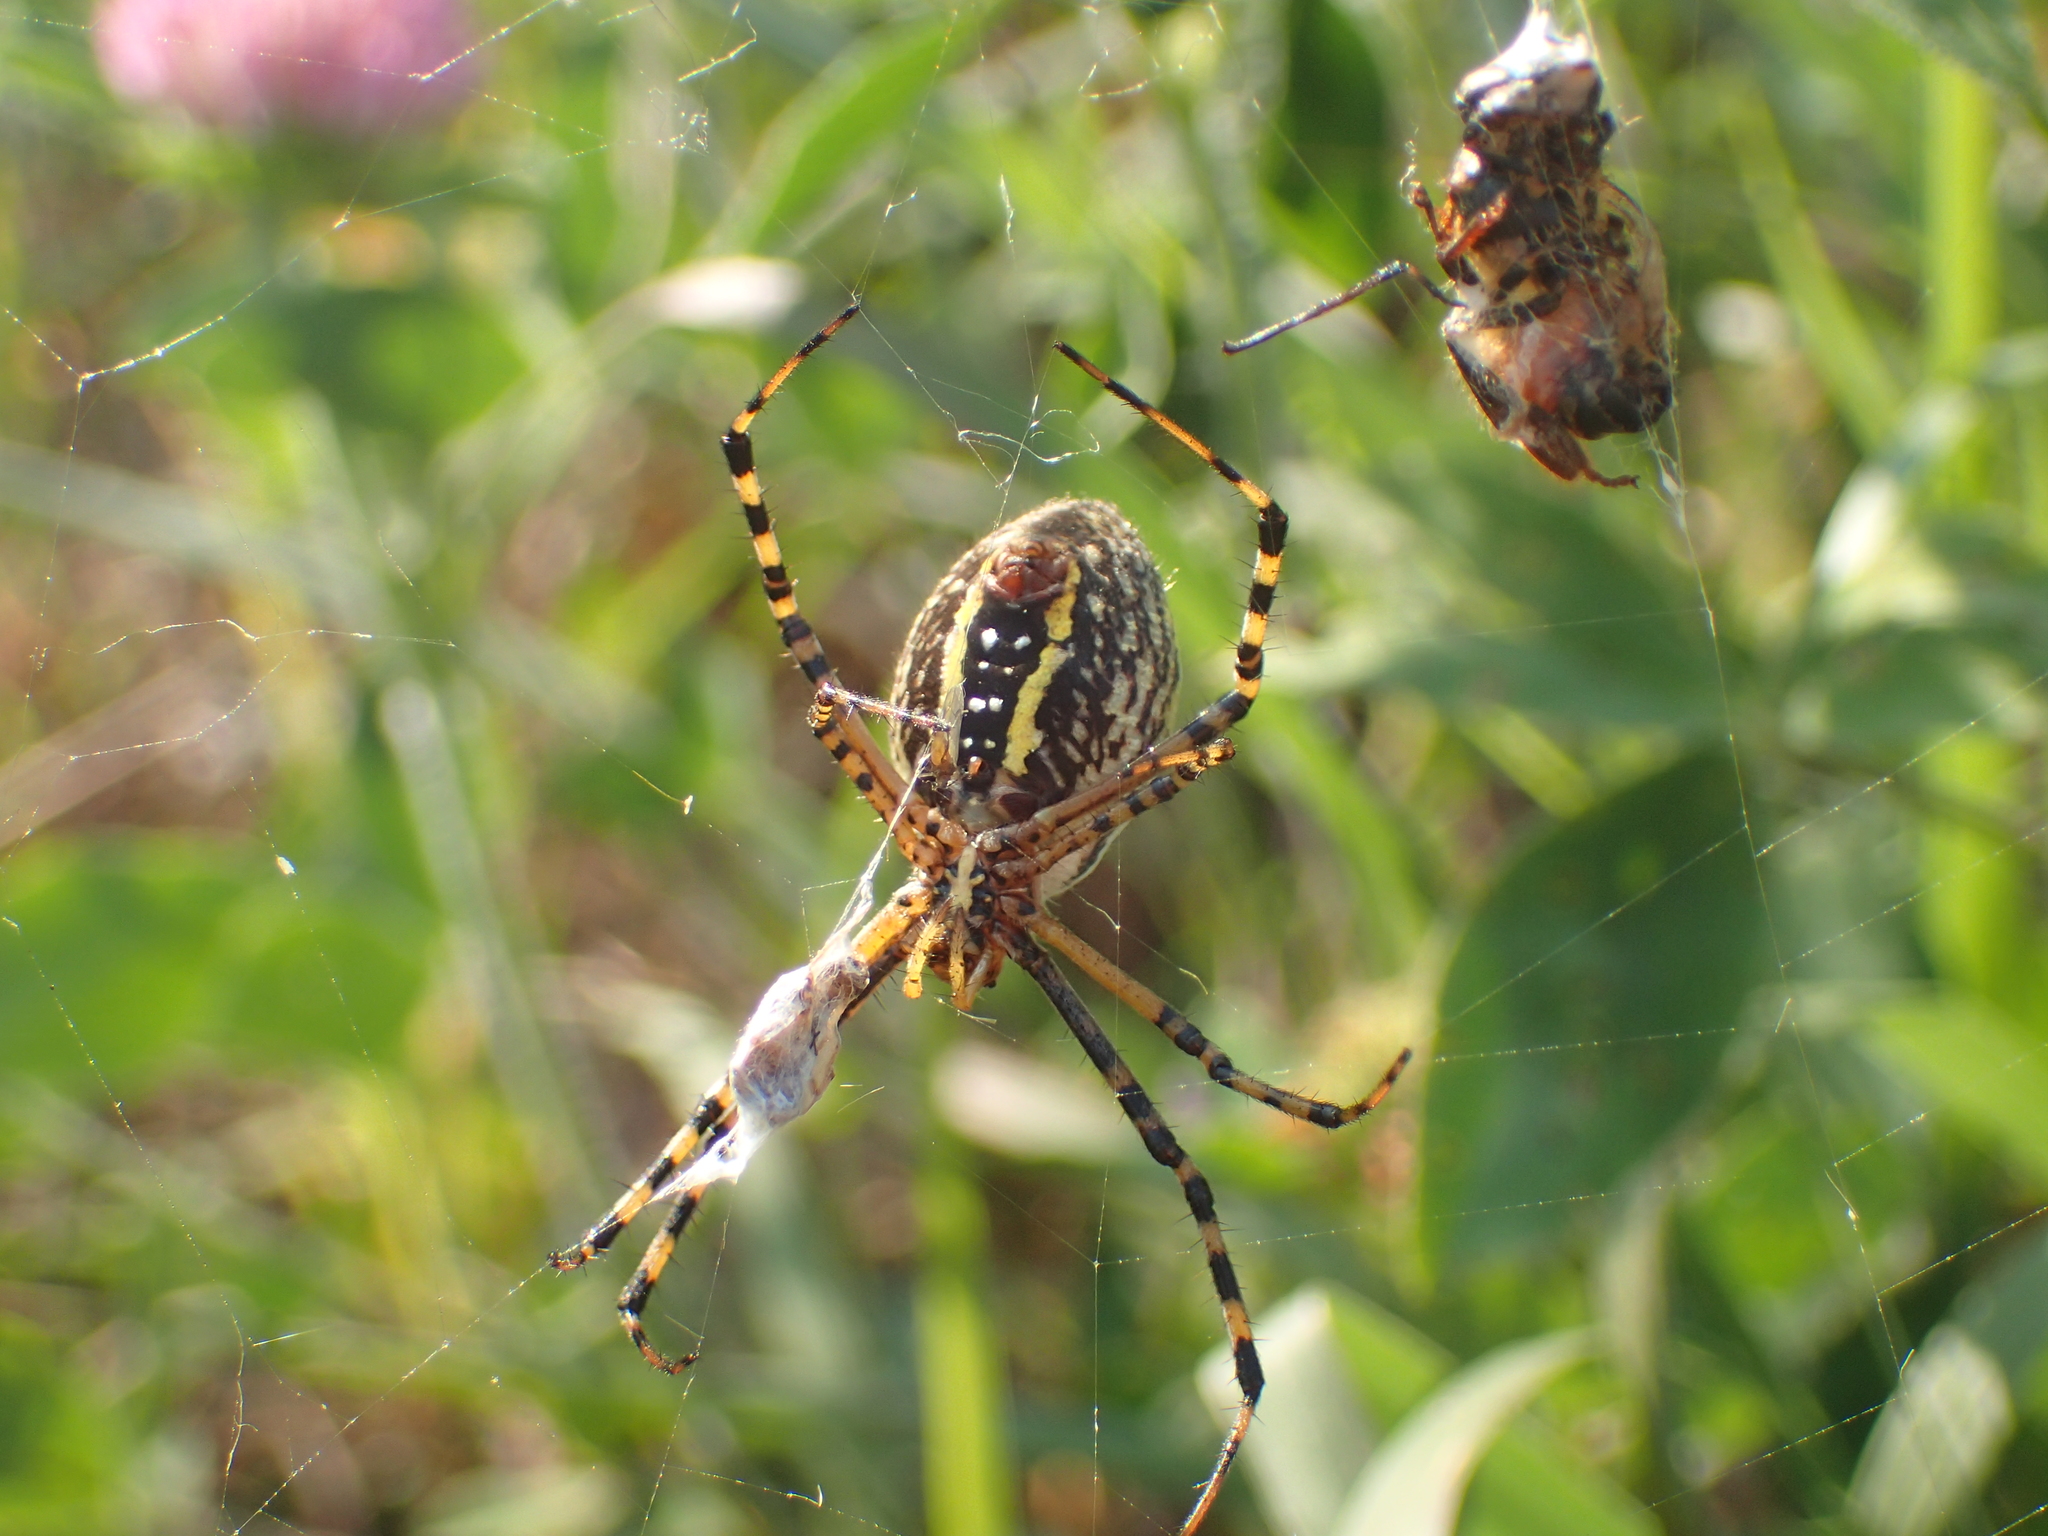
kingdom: Animalia
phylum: Arthropoda
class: Arachnida
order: Araneae
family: Araneidae
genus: Argiope
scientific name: Argiope trifasciata
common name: Banded garden spider
